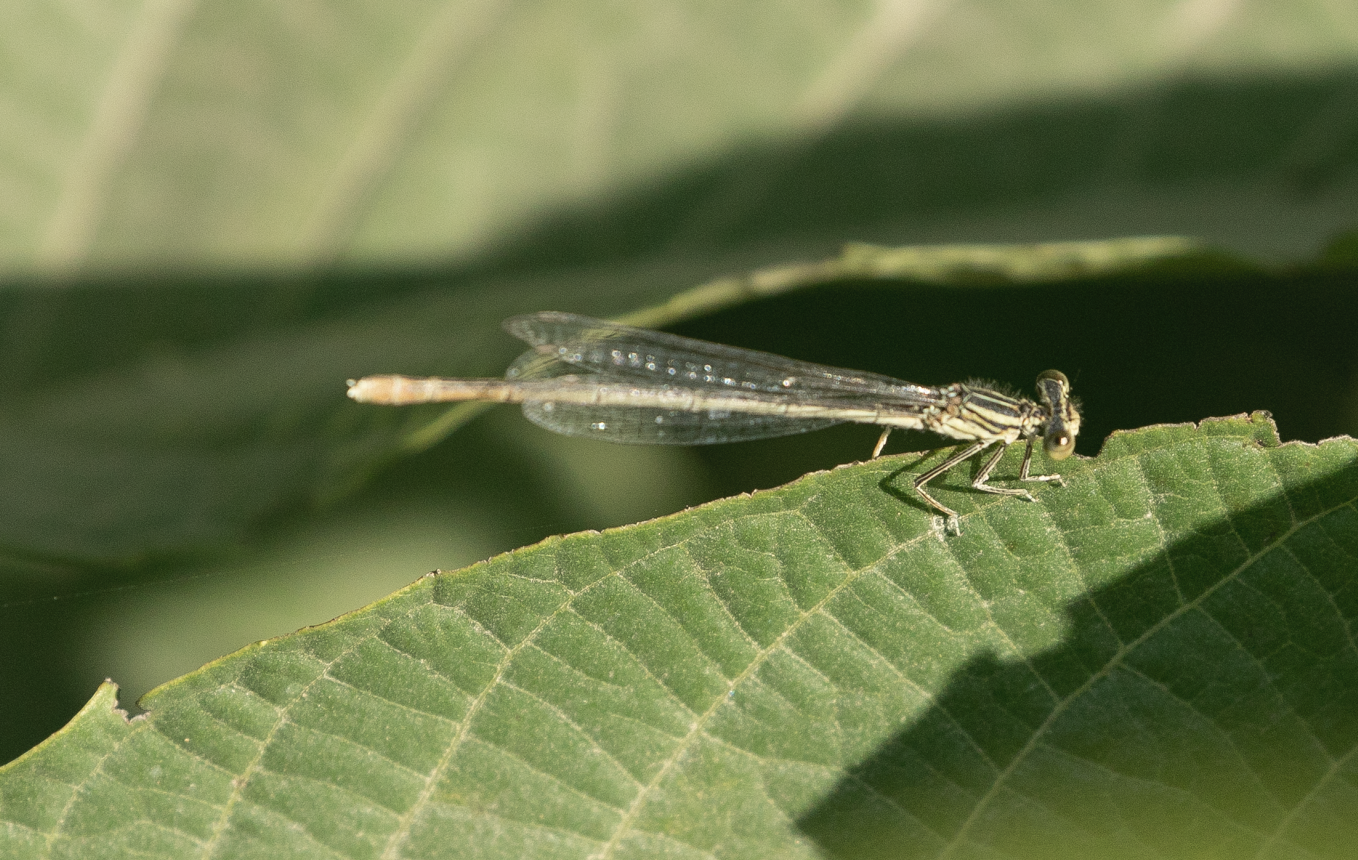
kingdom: Animalia
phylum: Arthropoda
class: Insecta
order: Odonata
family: Platycnemididae
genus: Platycnemis
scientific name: Platycnemis pennipes
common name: White-legged damselfly
